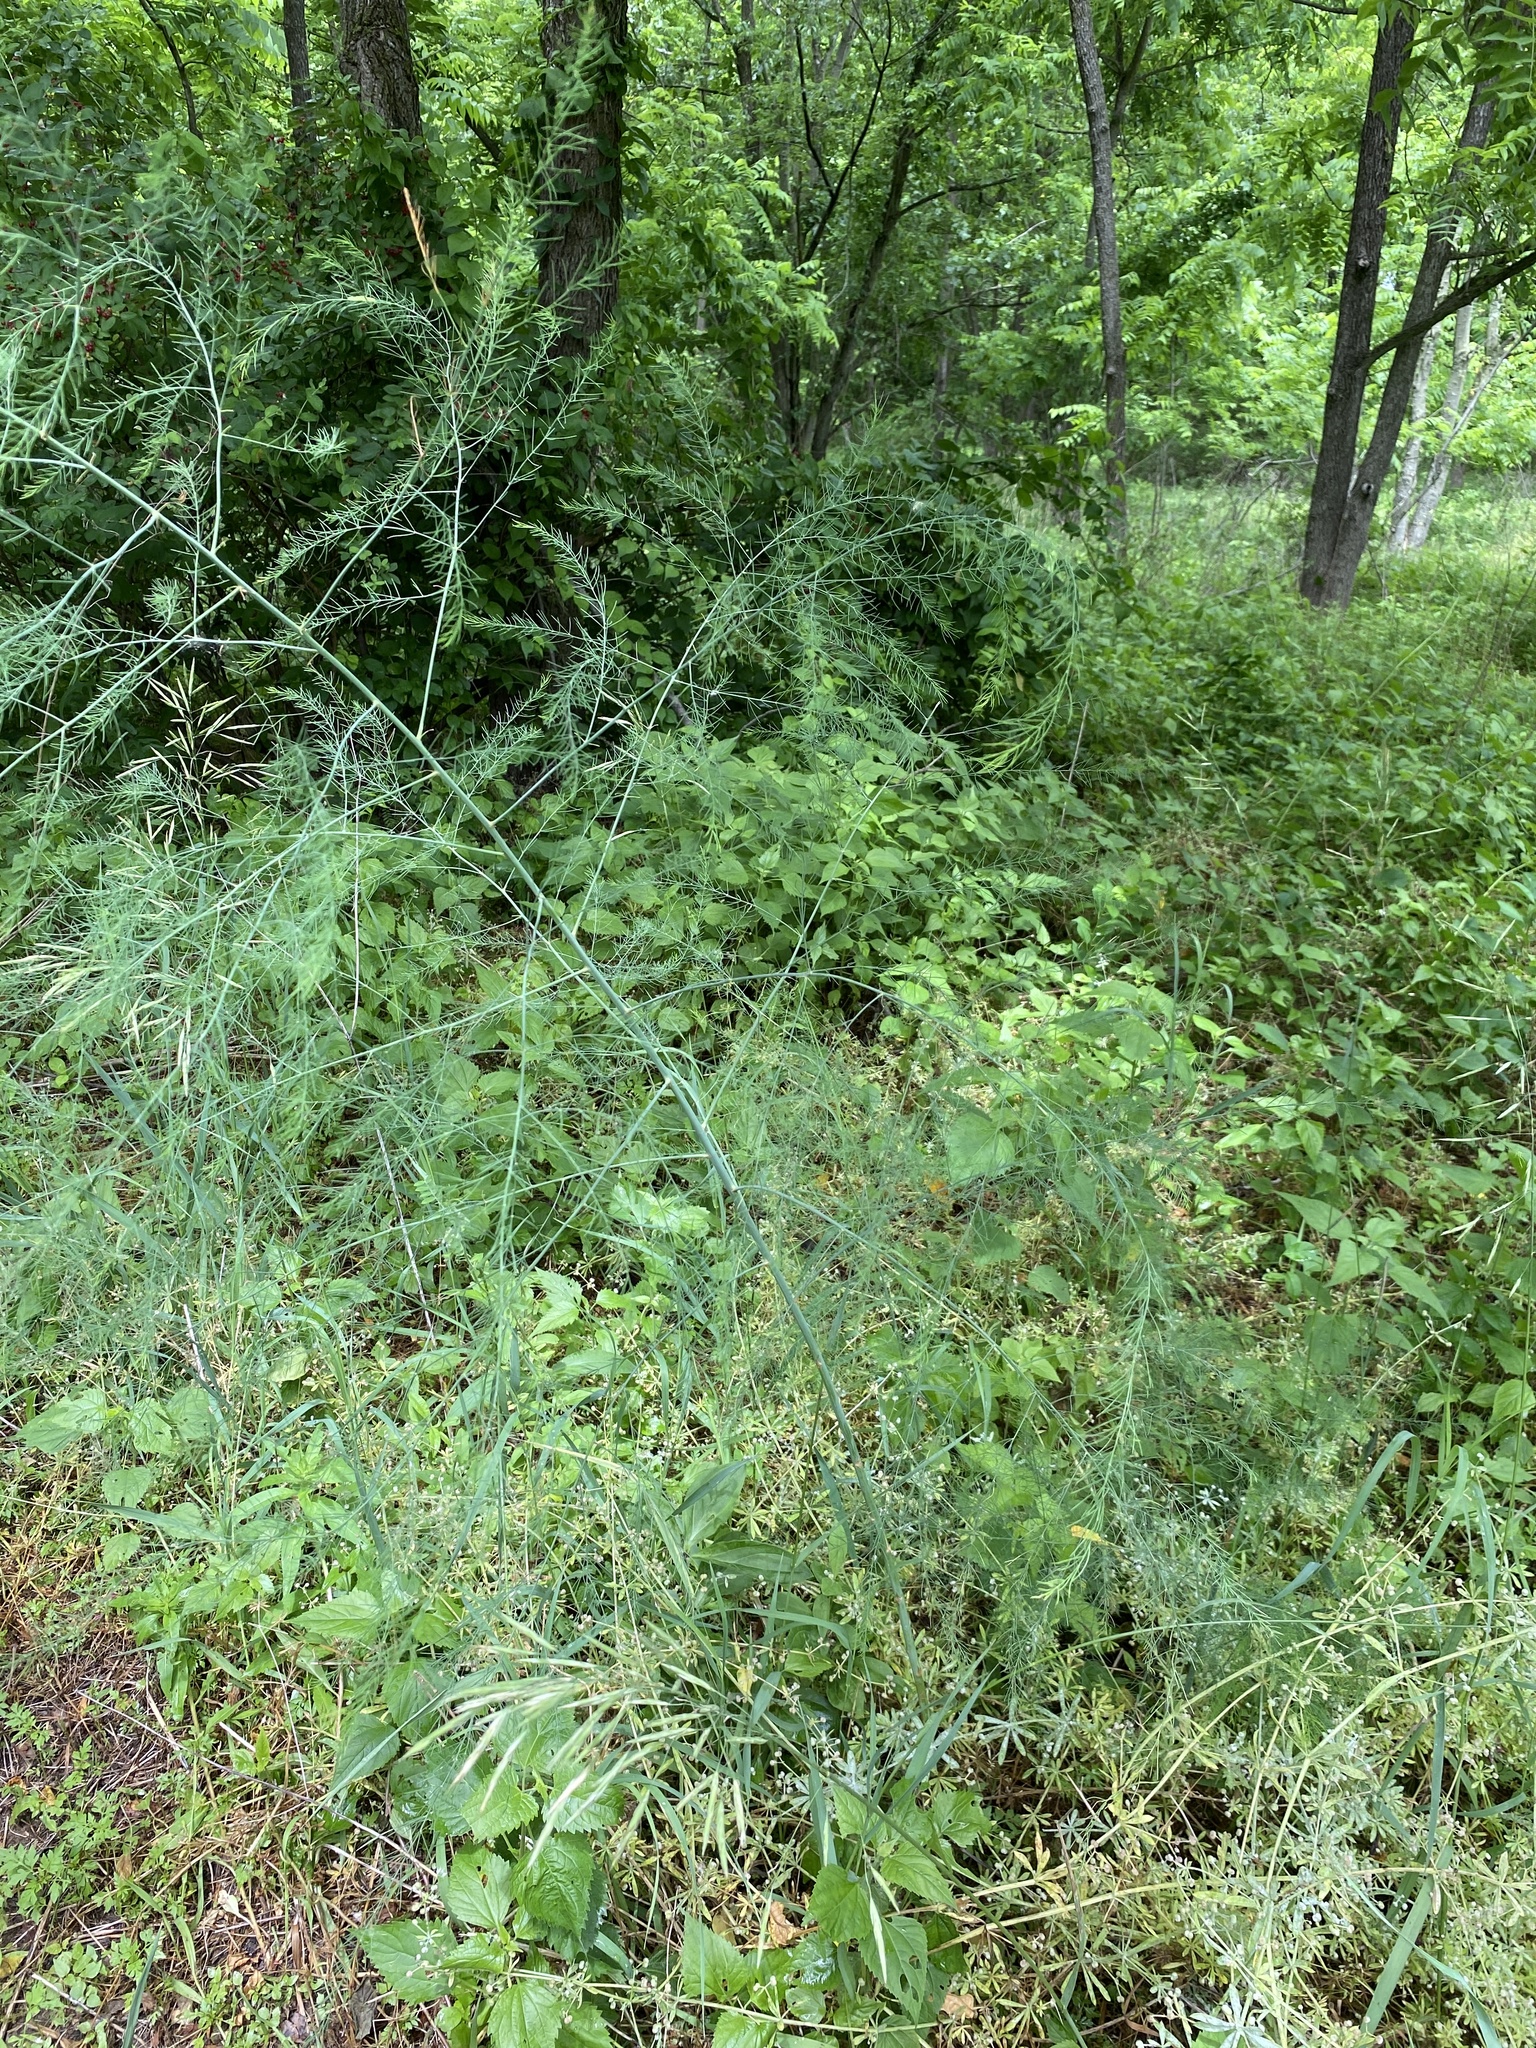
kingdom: Plantae
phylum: Tracheophyta
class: Liliopsida
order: Asparagales
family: Asparagaceae
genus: Asparagus
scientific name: Asparagus officinalis
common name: Garden asparagus
